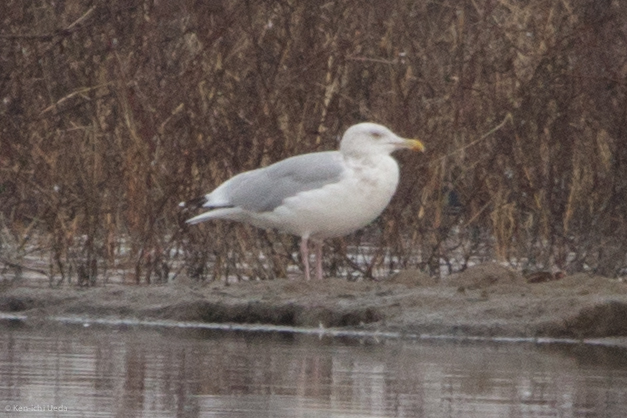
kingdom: Animalia
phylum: Chordata
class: Aves
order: Charadriiformes
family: Laridae
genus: Larus
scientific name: Larus smithsonianus
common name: American herring gull
